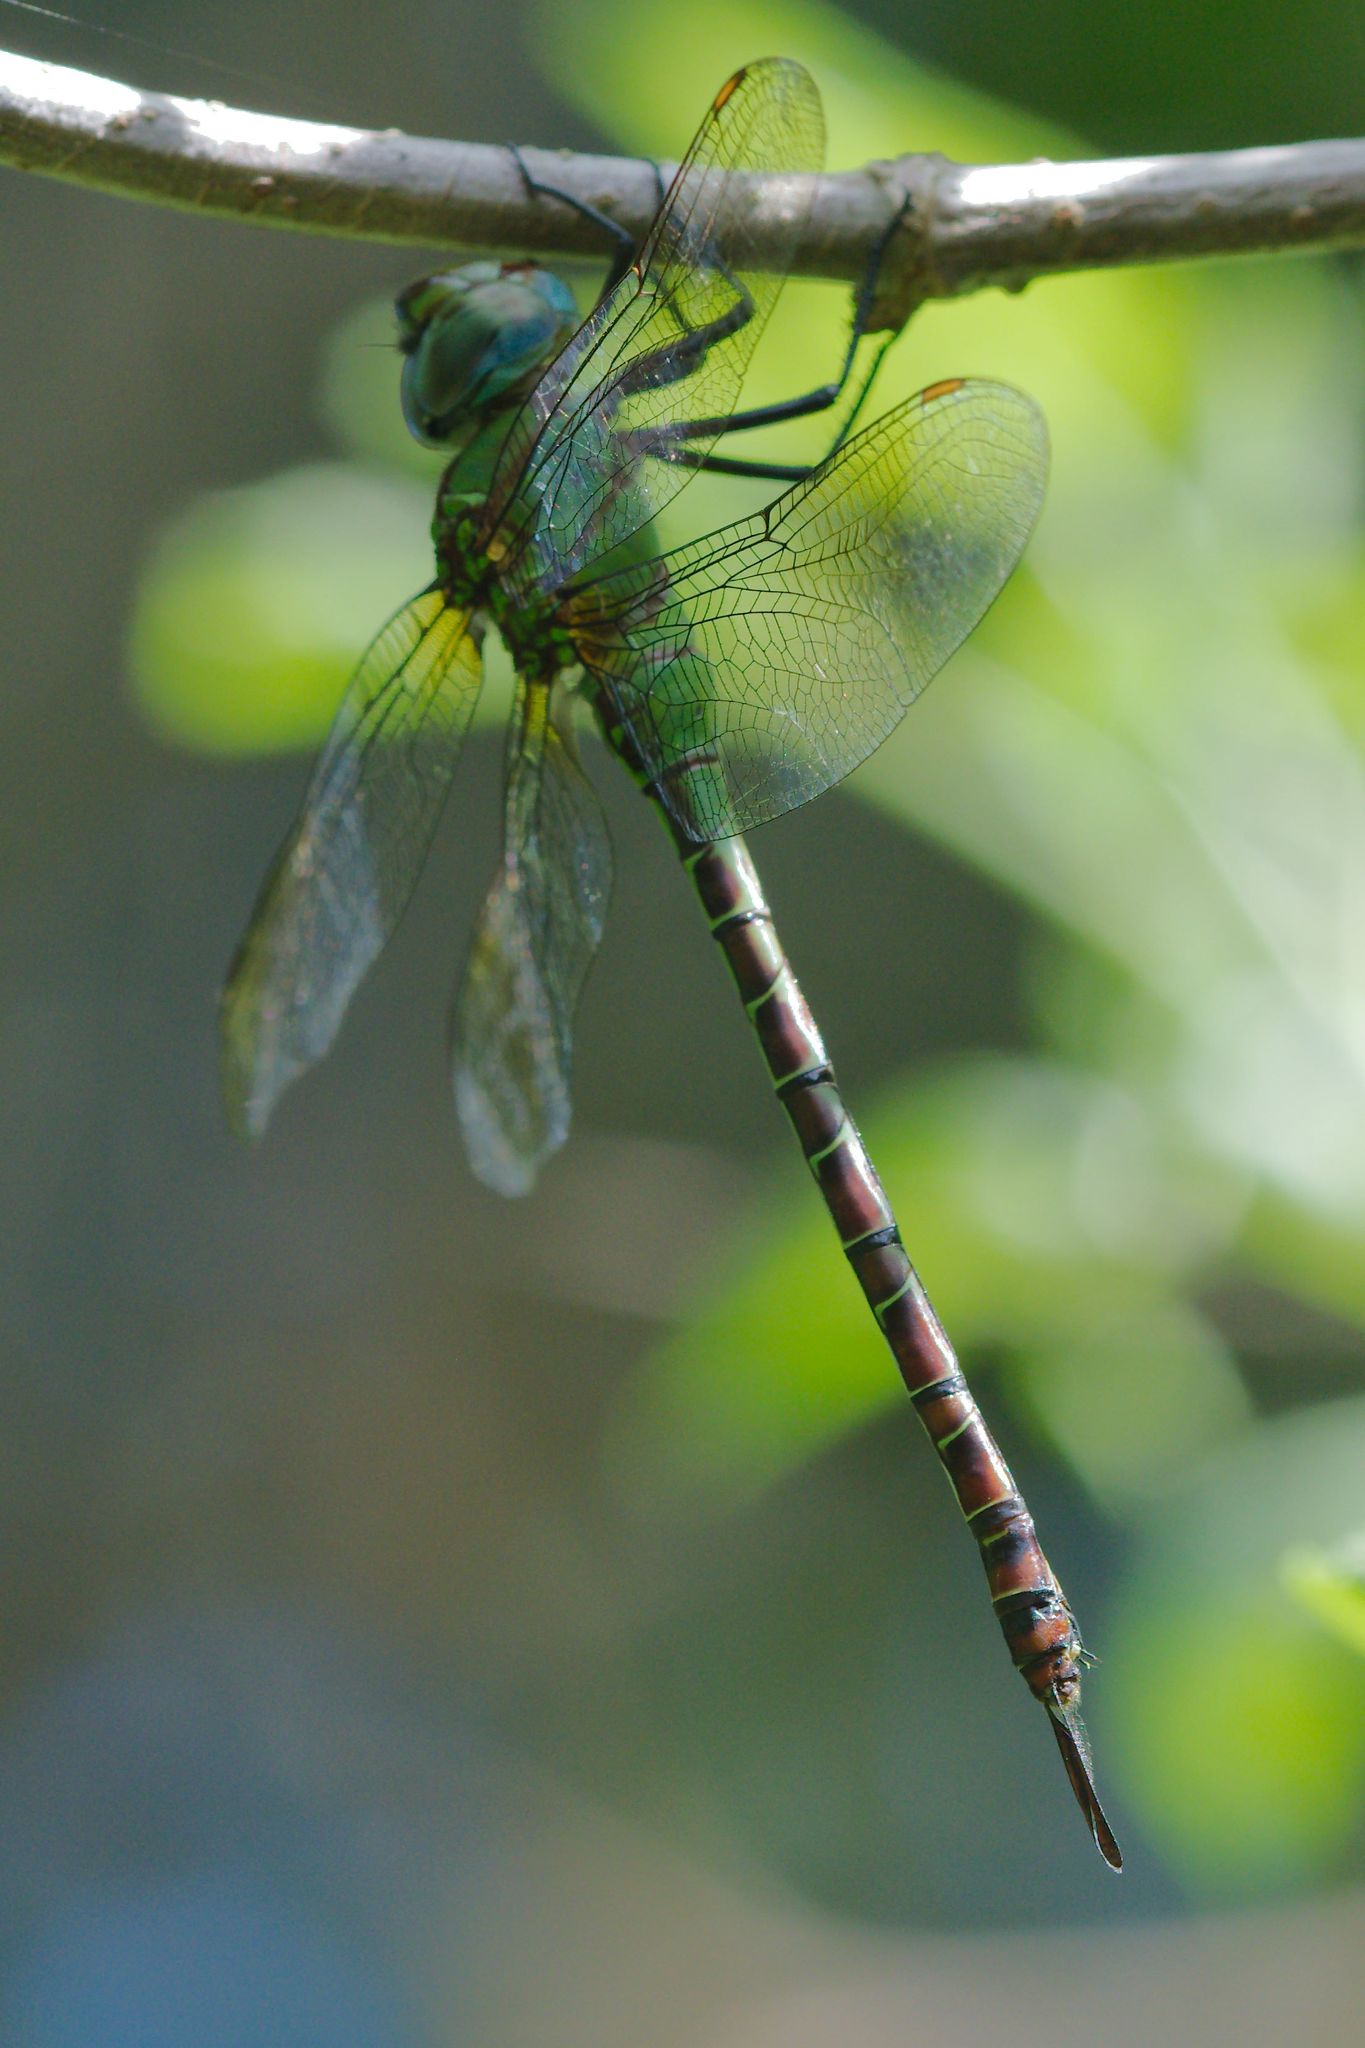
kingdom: Animalia
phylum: Arthropoda
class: Insecta
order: Odonata
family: Aeshnidae
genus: Coryphaeschna
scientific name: Coryphaeschna adnexa
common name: Blue-faced darner
